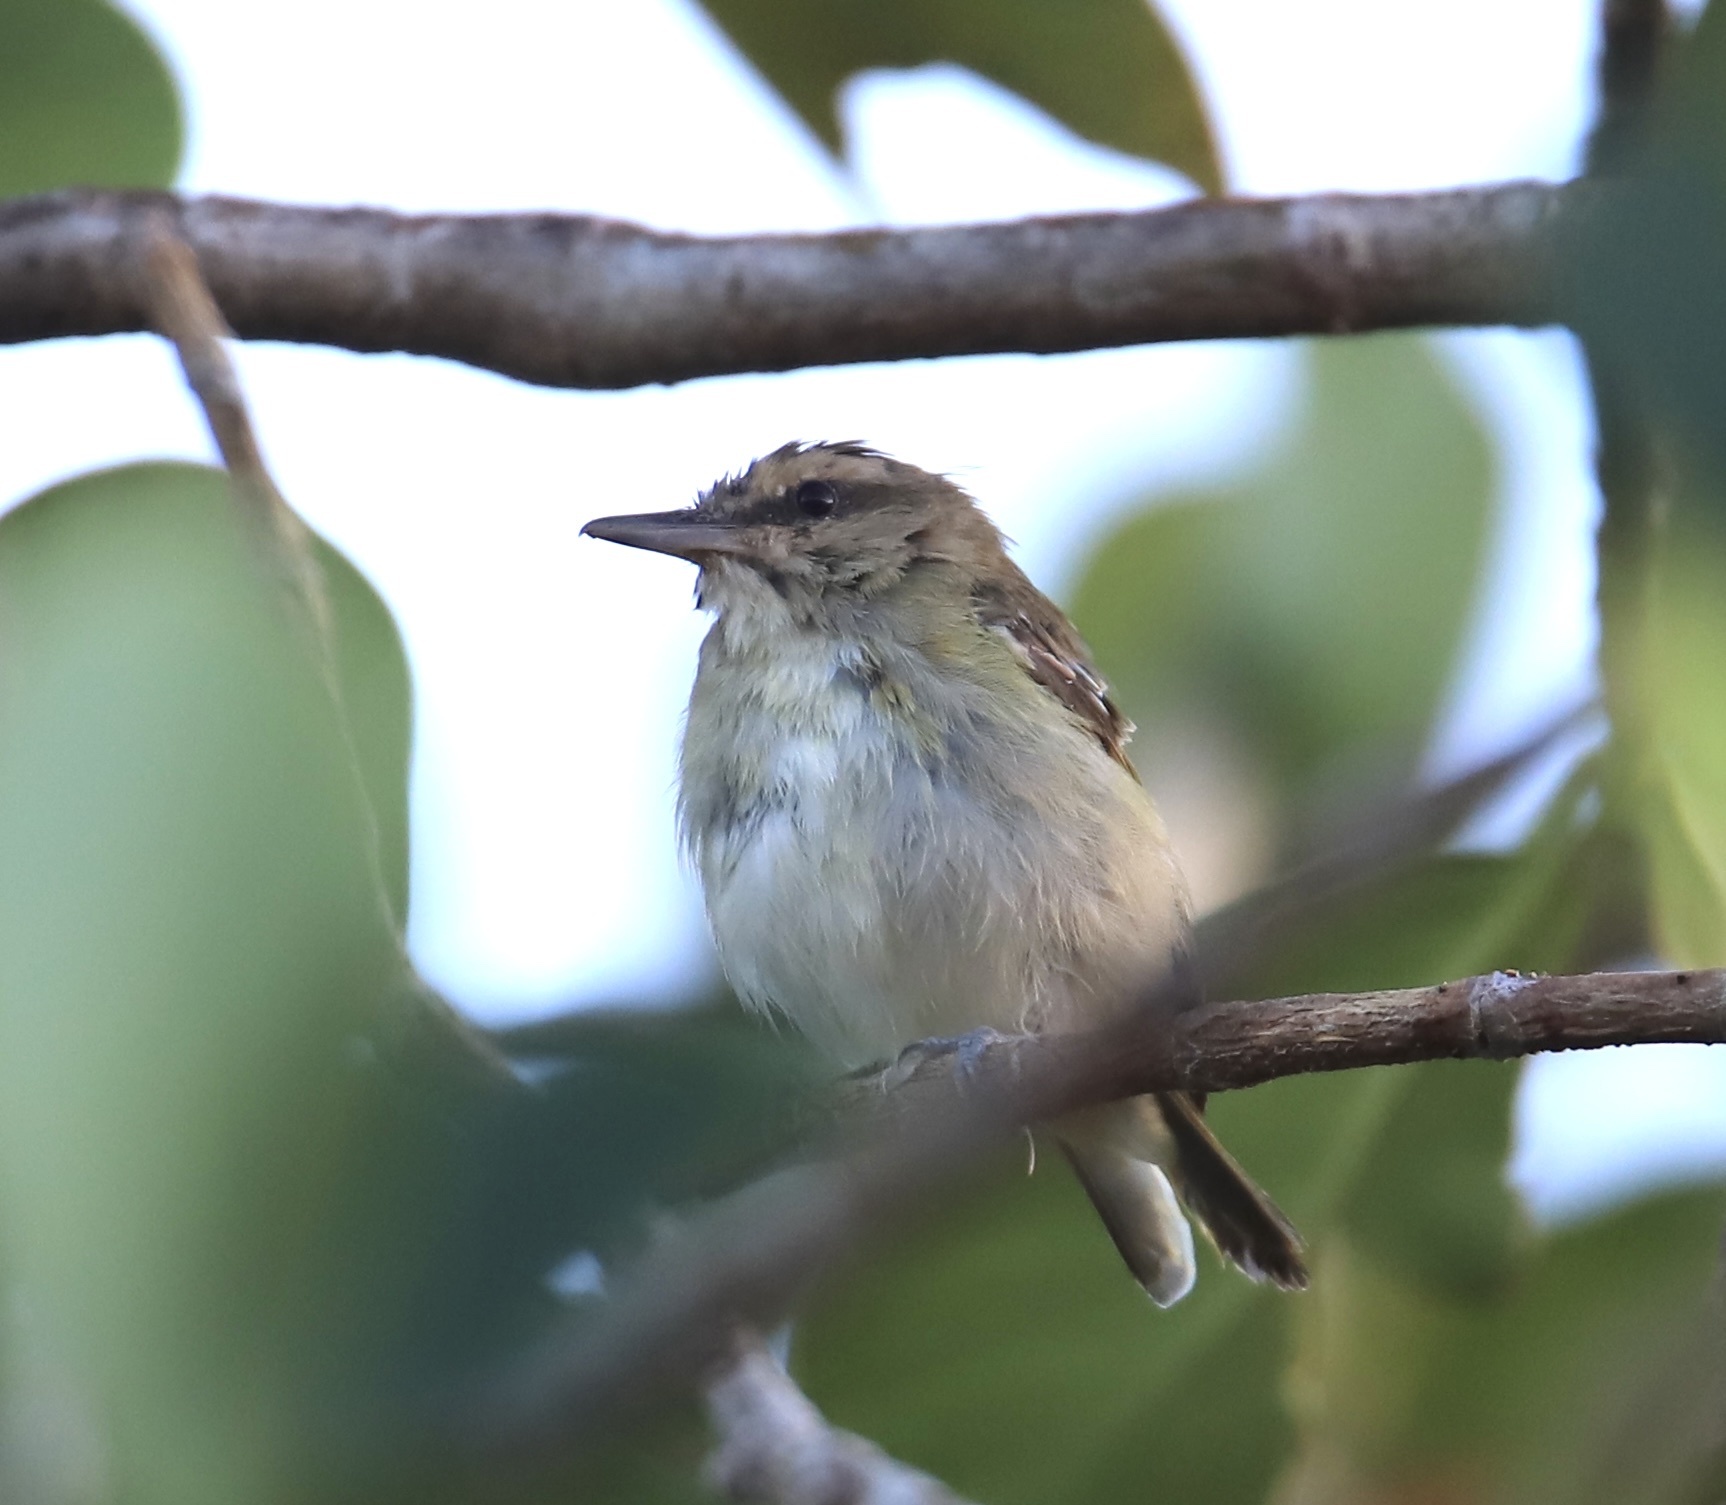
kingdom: Animalia
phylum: Chordata
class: Aves
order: Passeriformes
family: Vireonidae
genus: Vireo
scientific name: Vireo altiloquus
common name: Black-whiskered vireo
